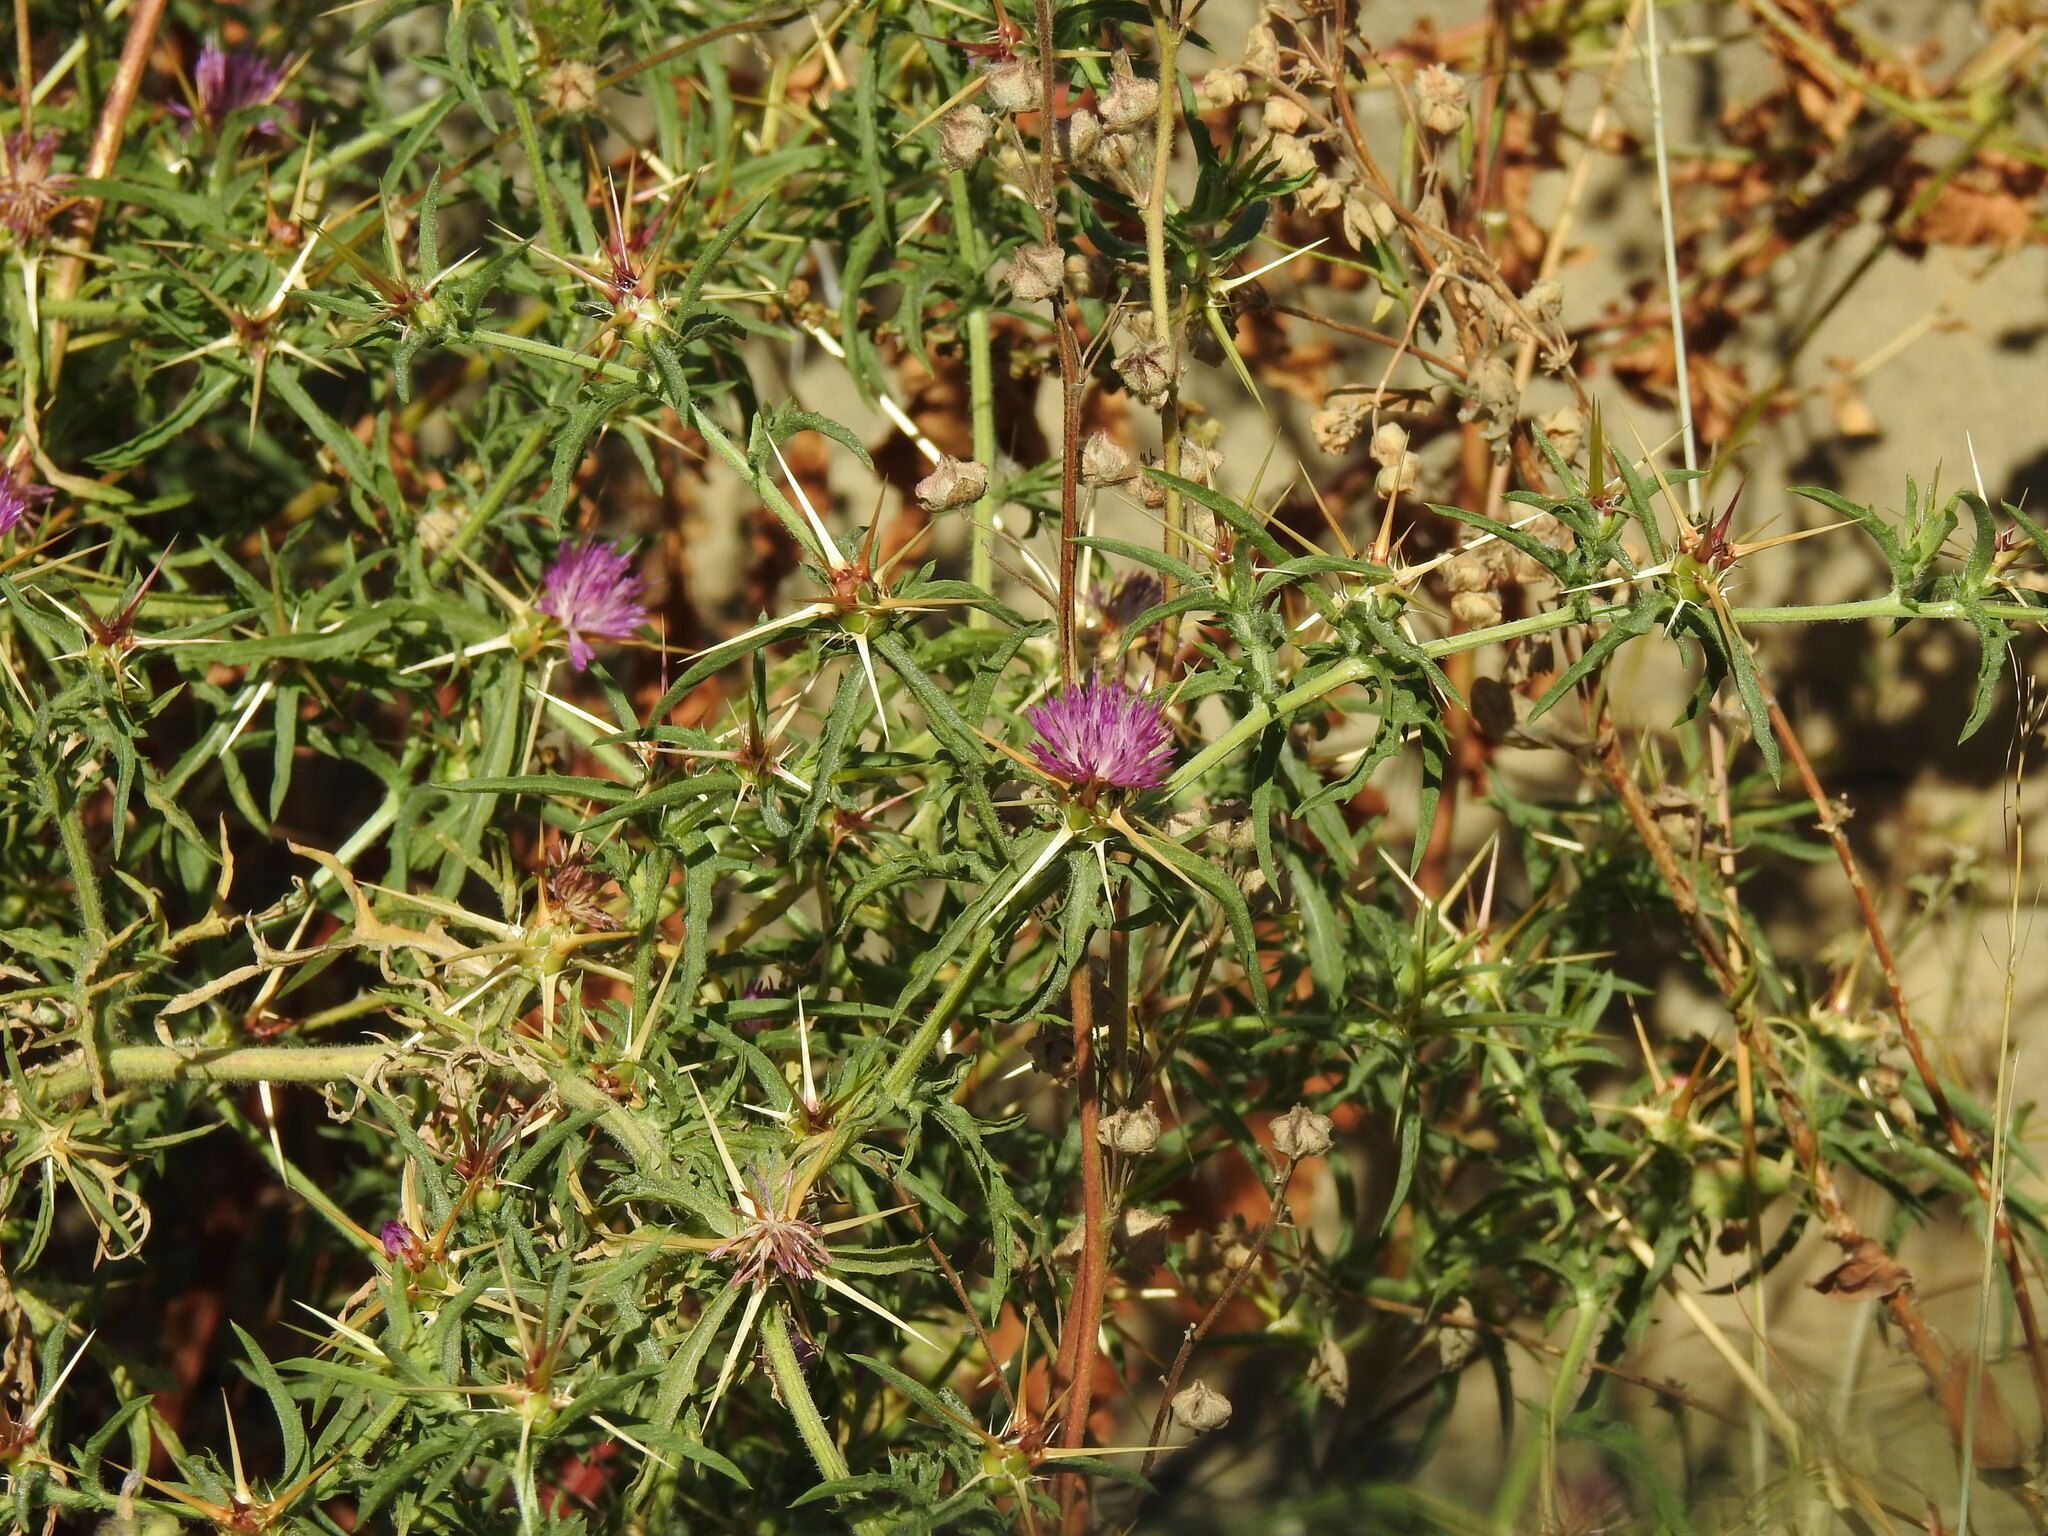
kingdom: Plantae
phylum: Tracheophyta
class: Magnoliopsida
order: Asterales
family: Asteraceae
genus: Centaurea
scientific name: Centaurea calcitrapa
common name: Red star-thistle
